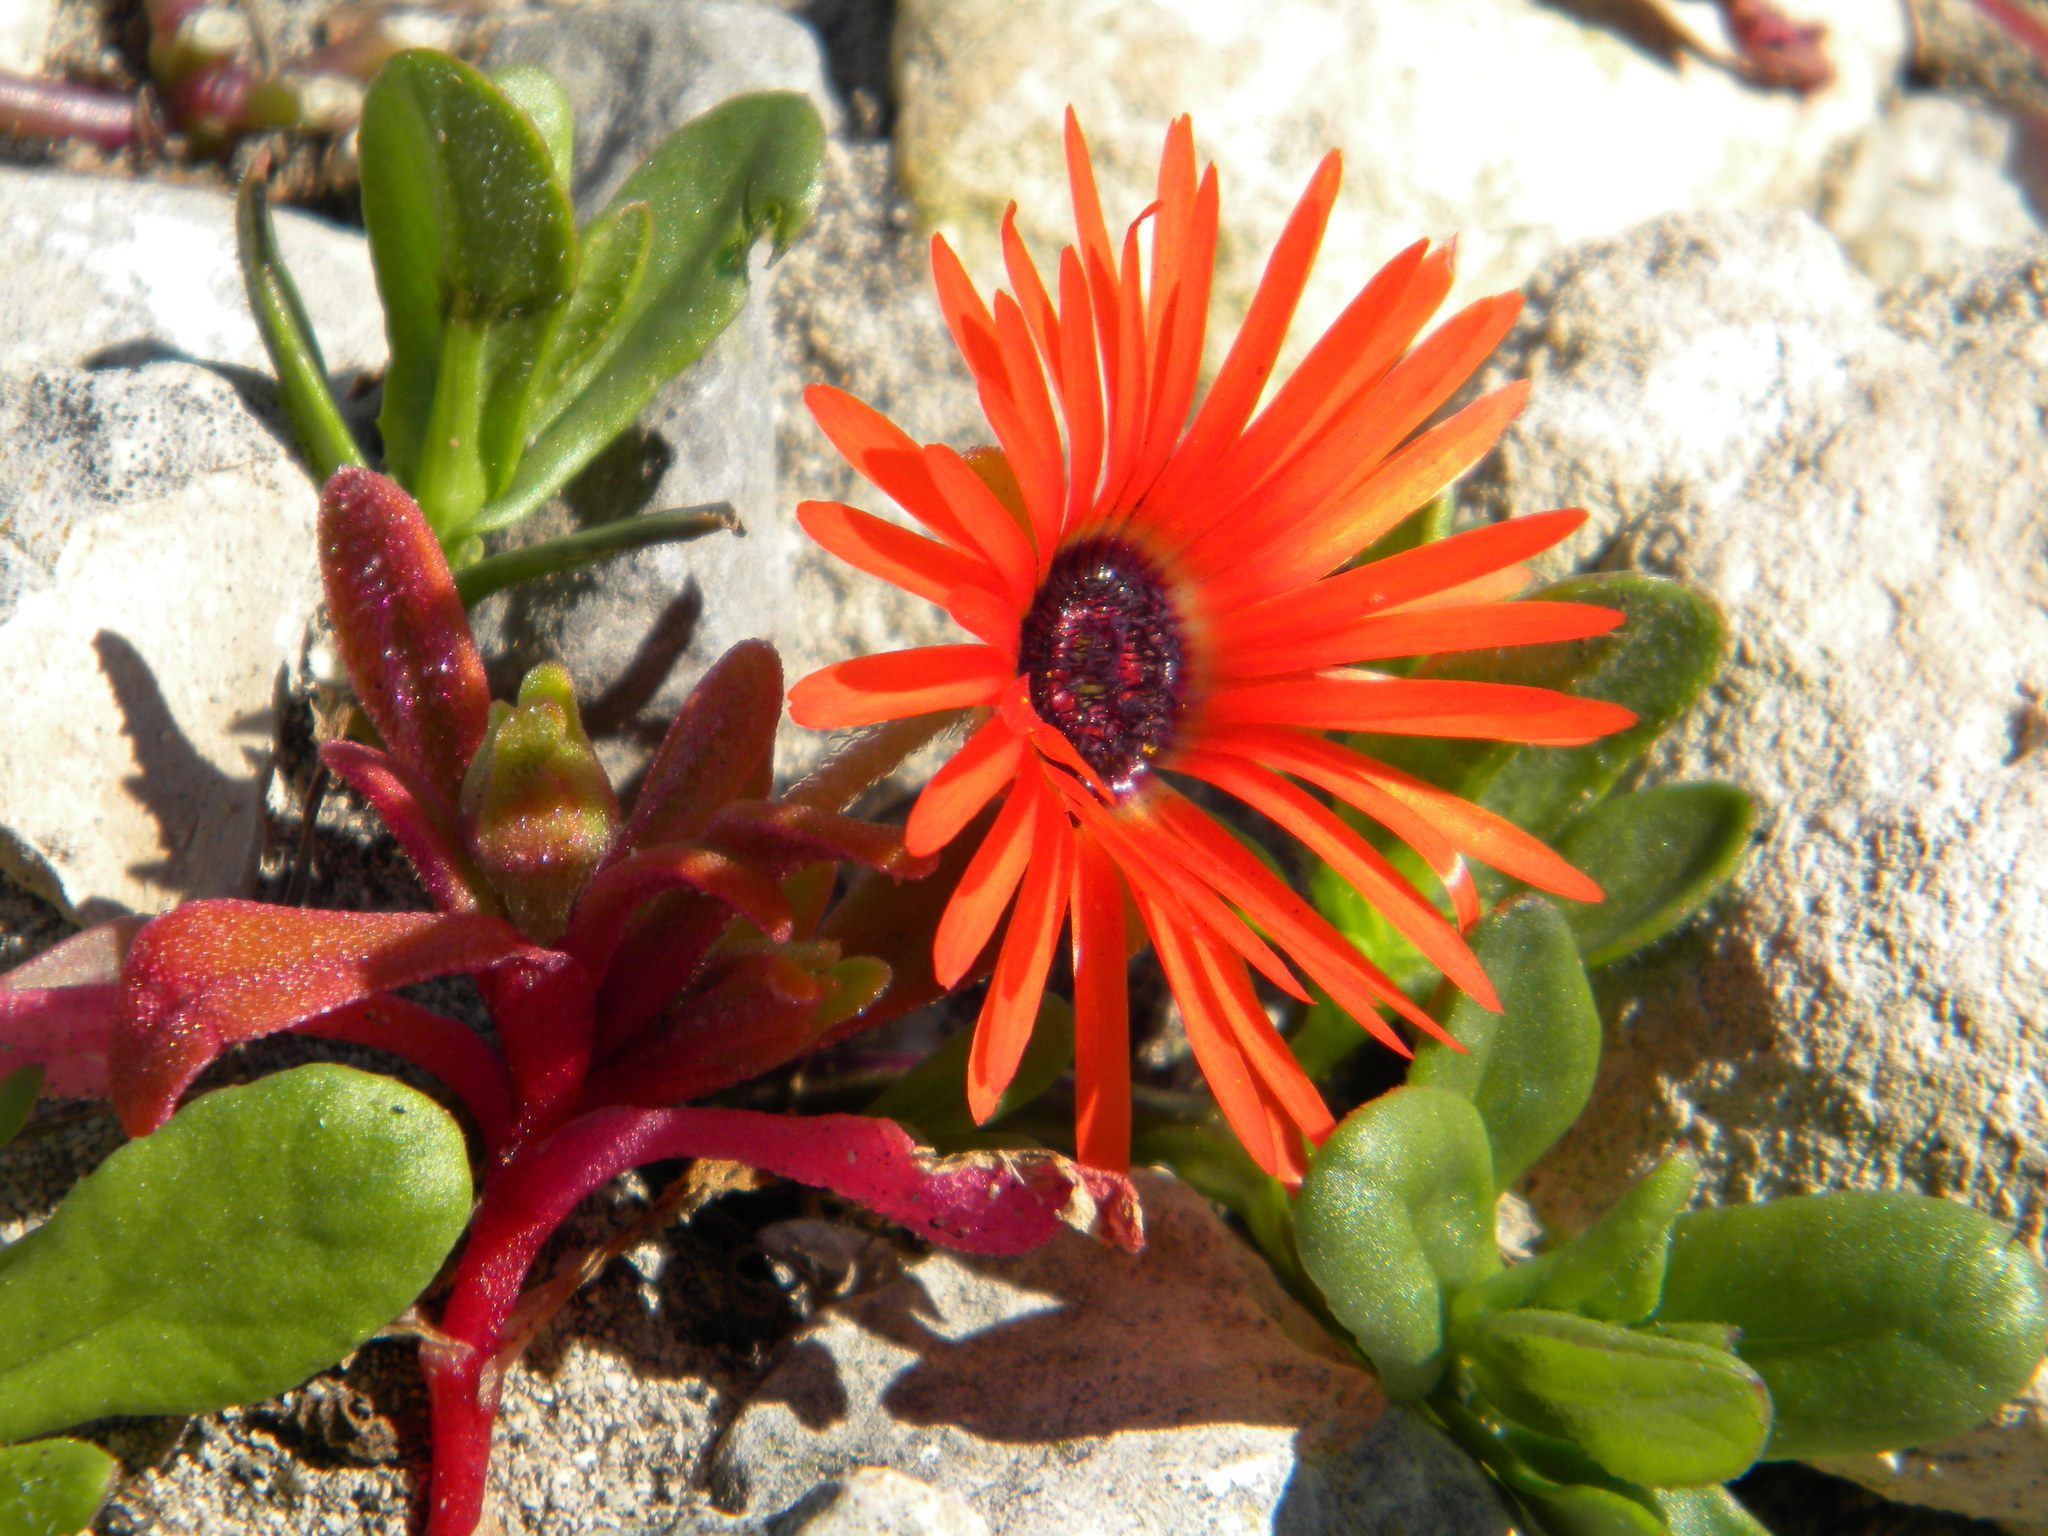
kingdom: Plantae
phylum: Tracheophyta
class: Magnoliopsida
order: Caryophyllales
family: Aizoaceae
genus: Cleretum
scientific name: Cleretum bellidiforme
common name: Livingstone daisy
